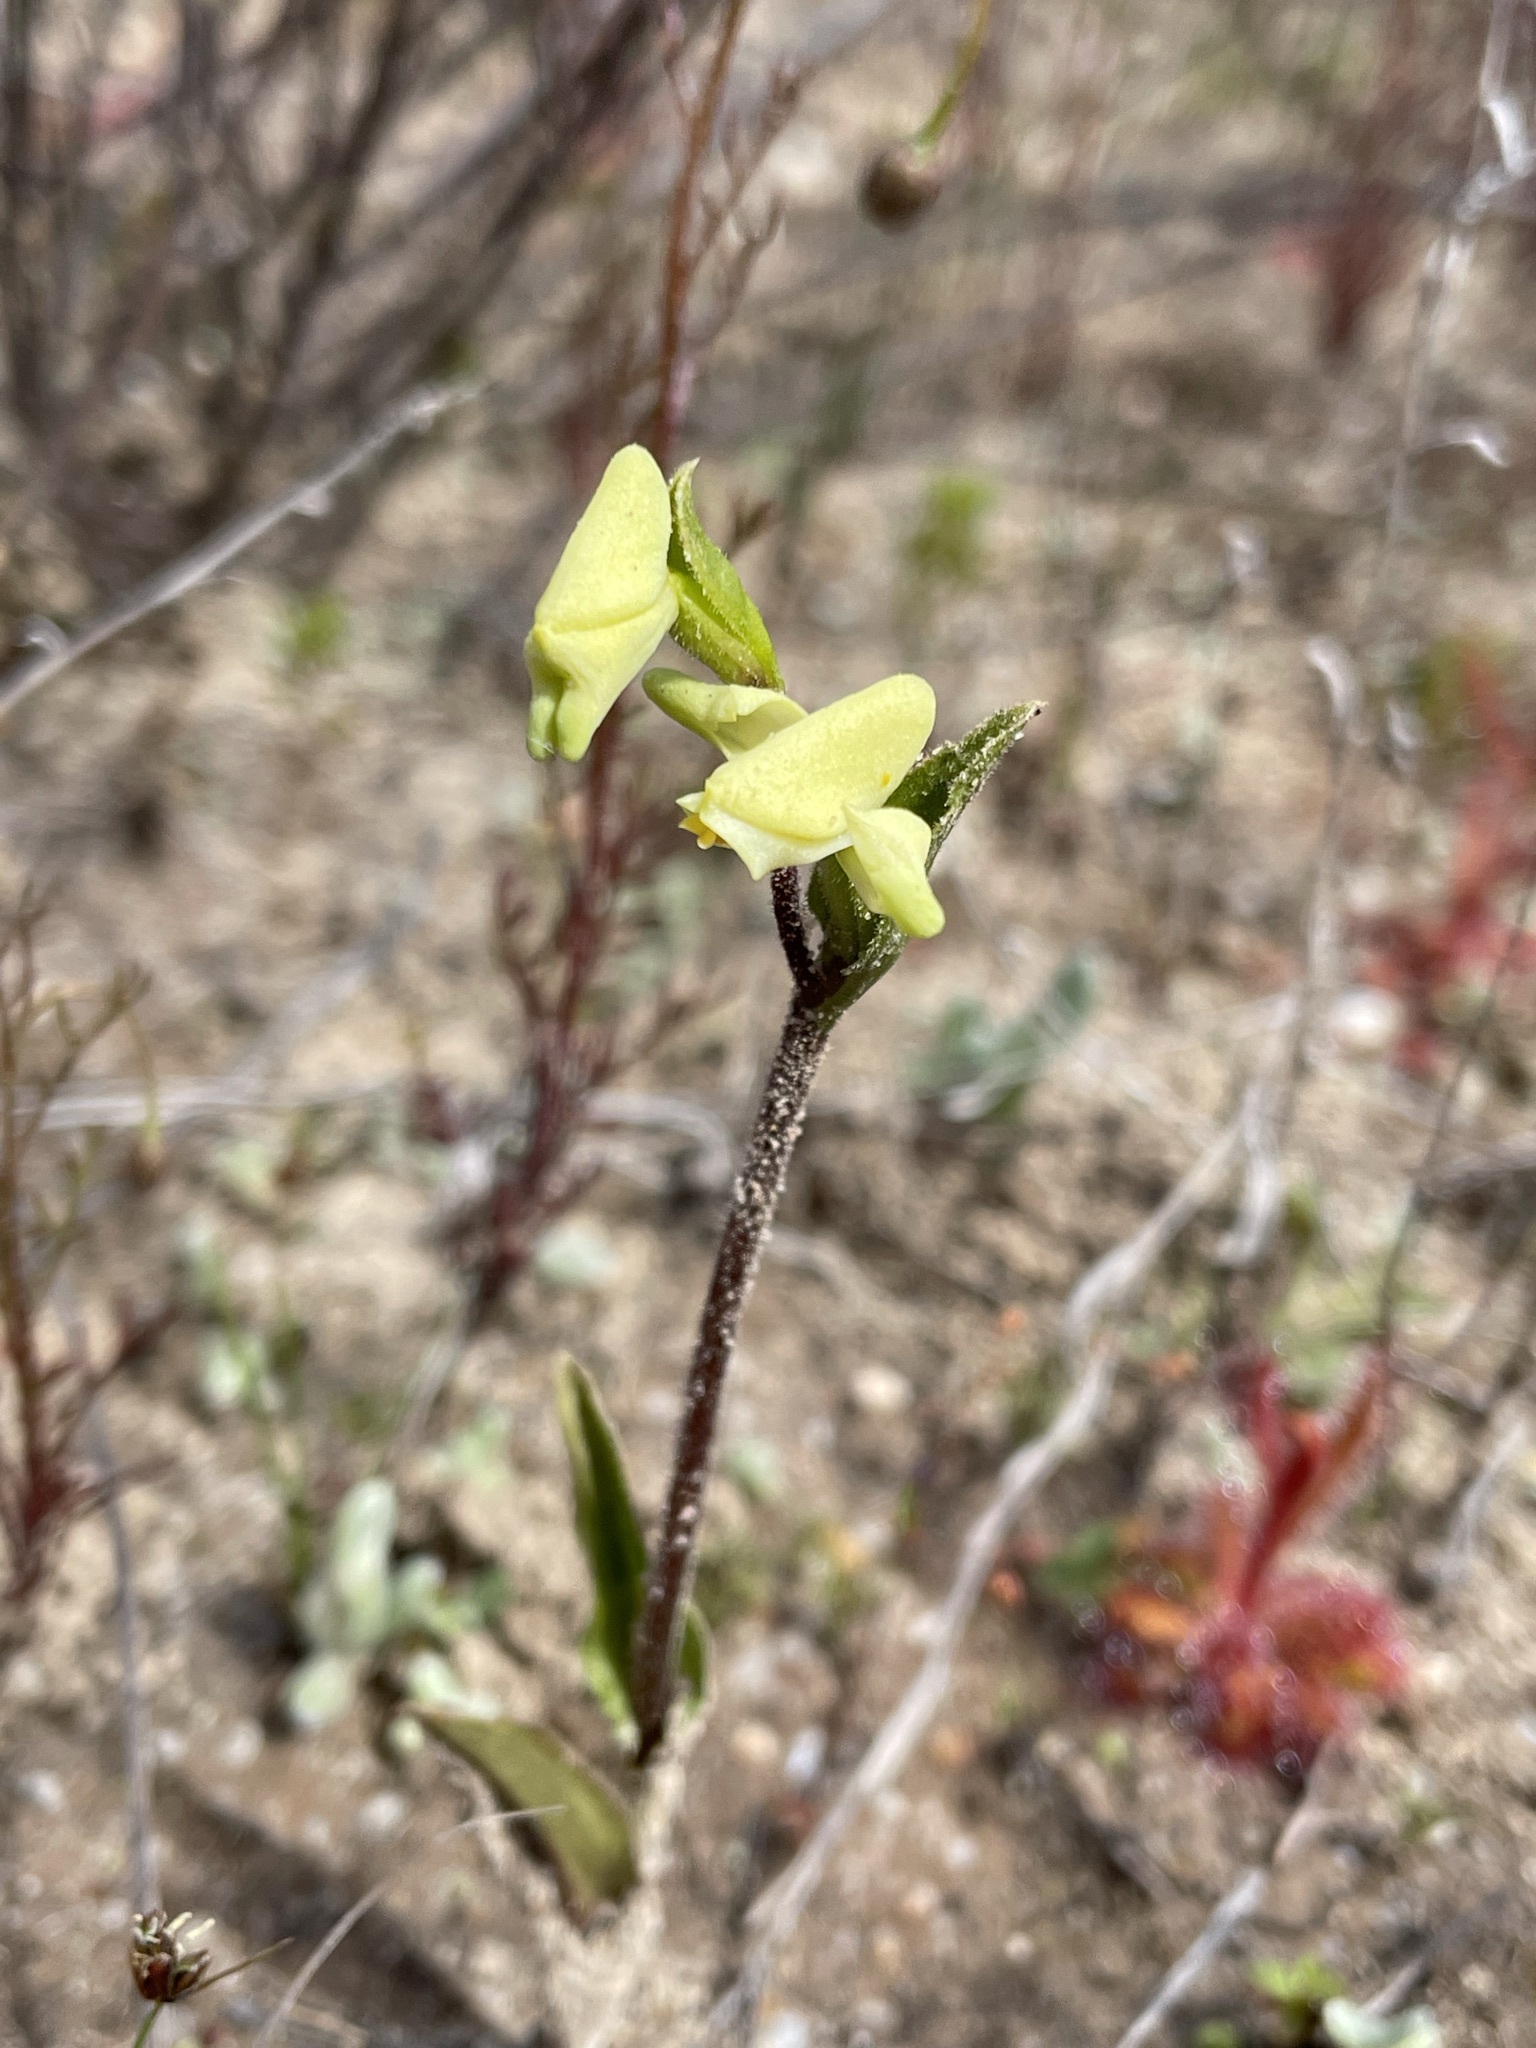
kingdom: Plantae
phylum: Tracheophyta
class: Liliopsida
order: Asparagales
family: Orchidaceae
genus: Disperis
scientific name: Disperis villosa
